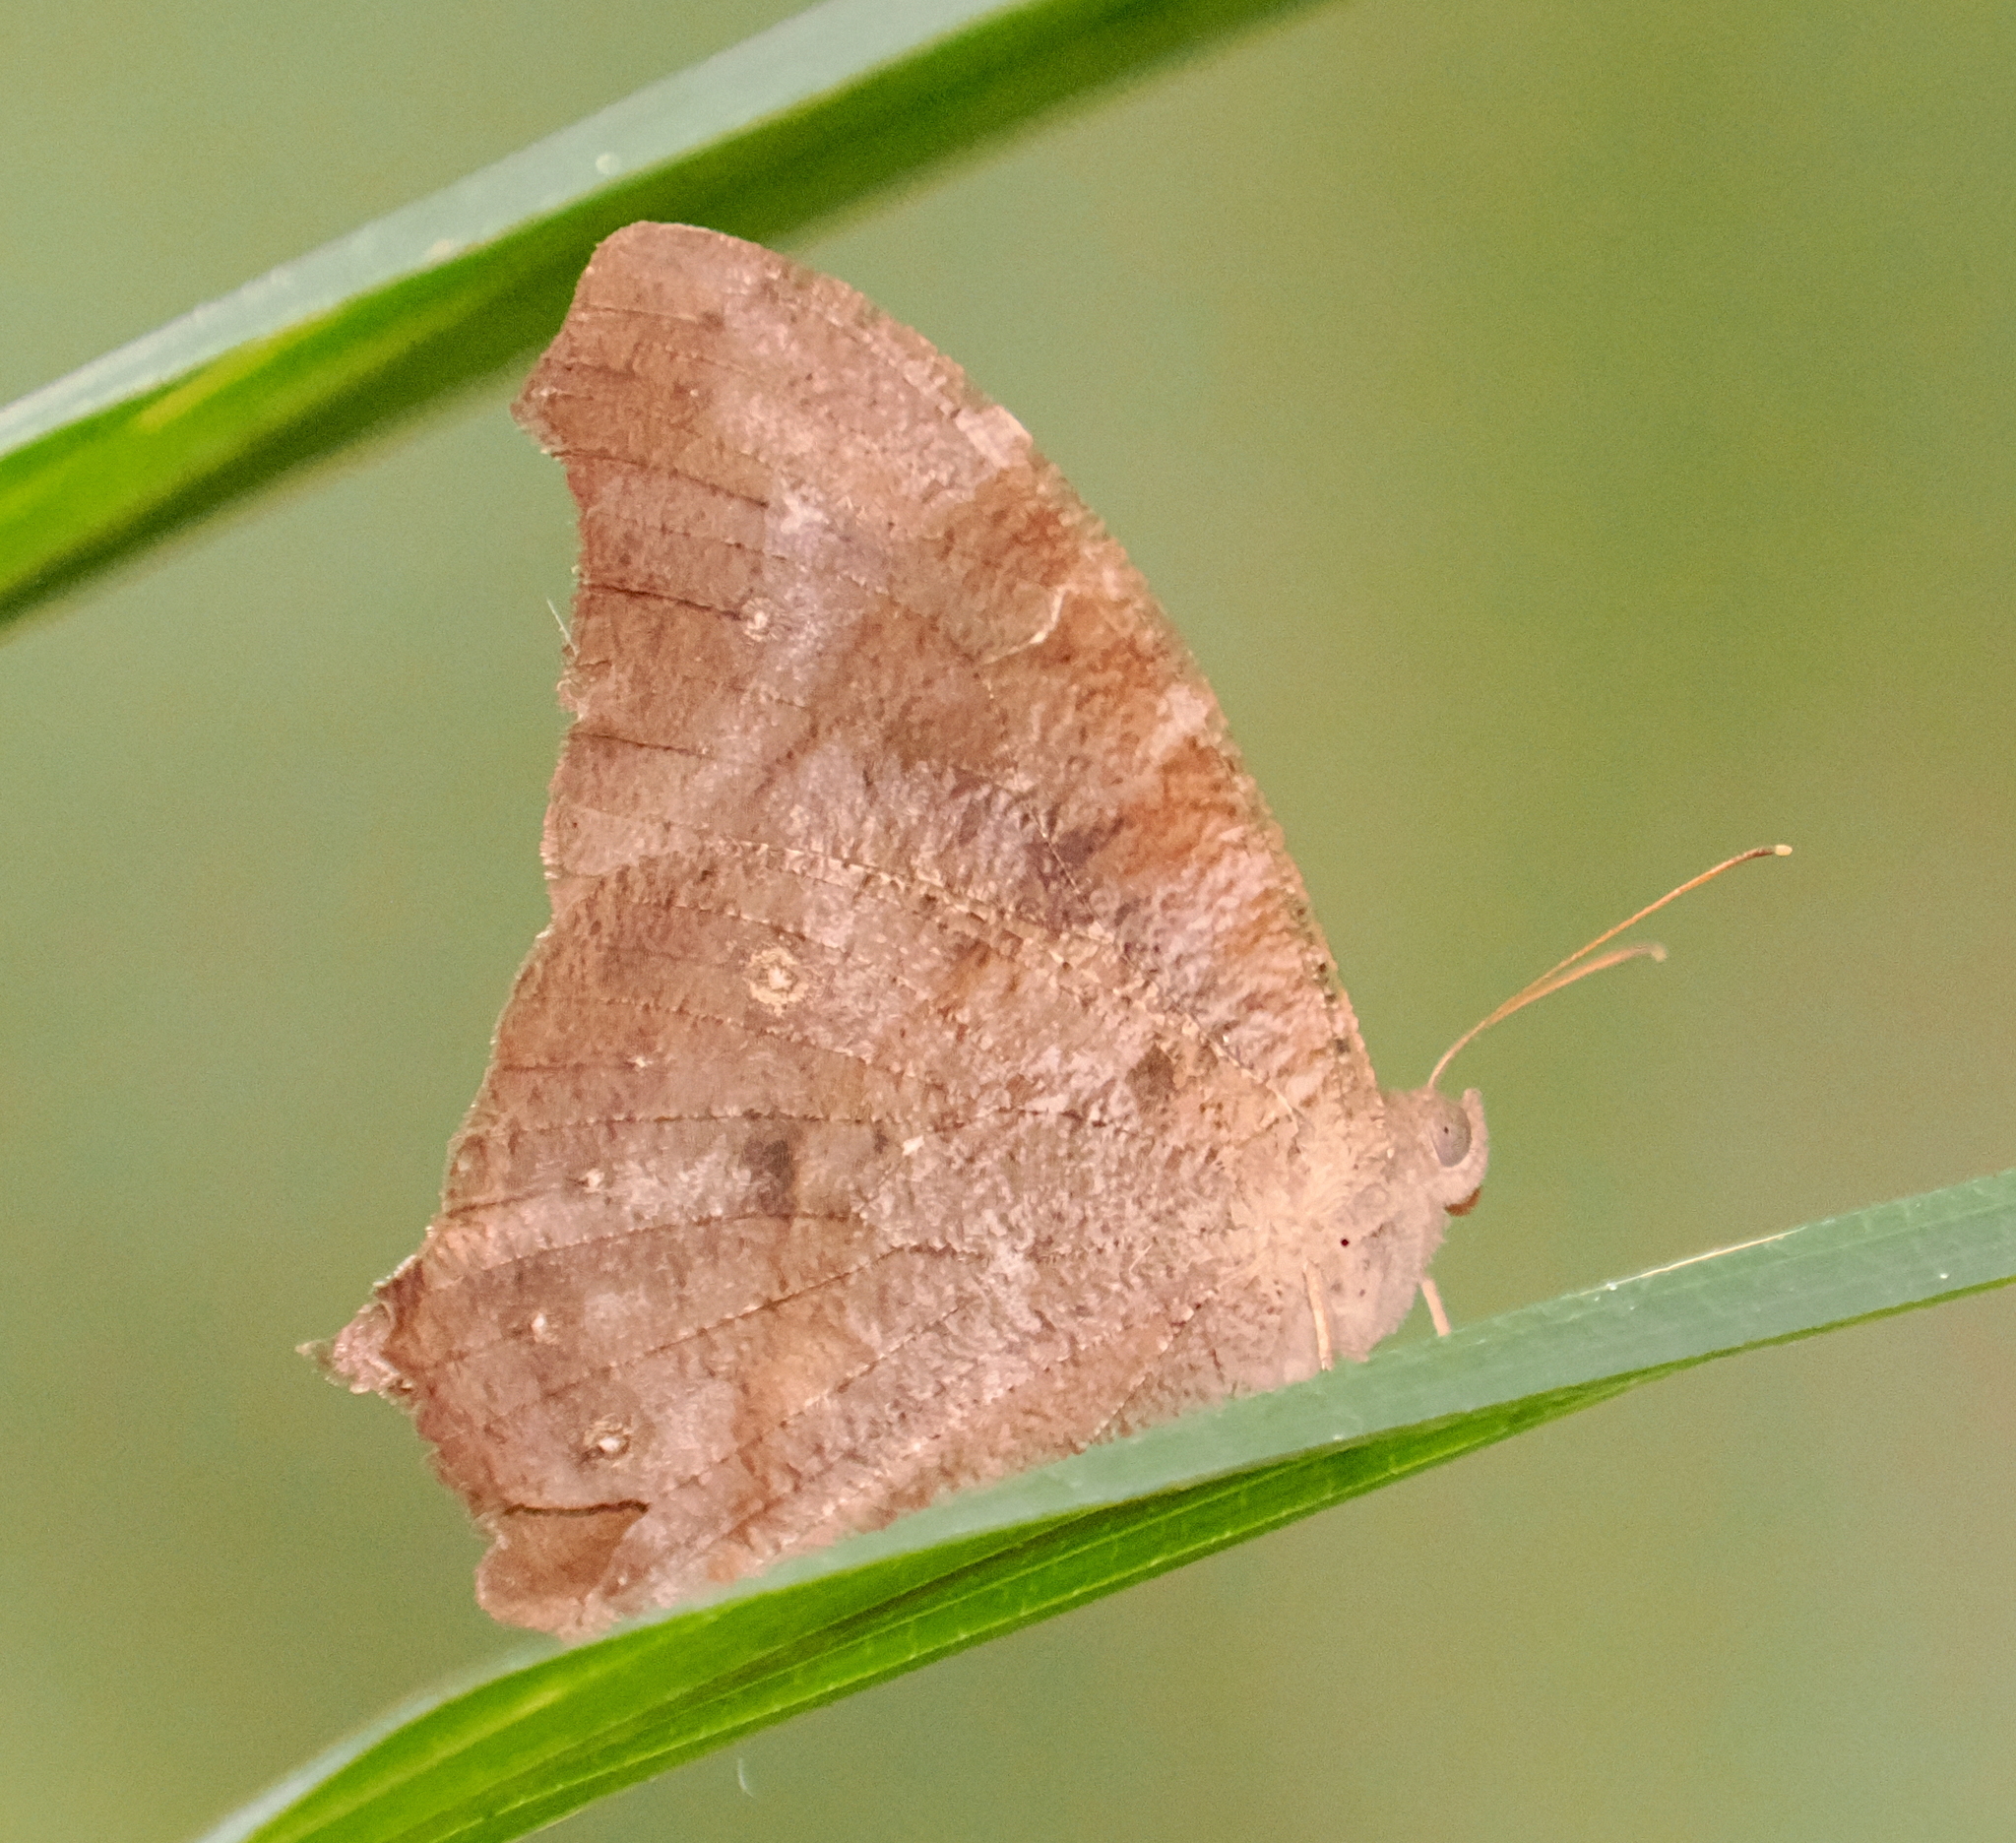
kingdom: Animalia
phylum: Arthropoda
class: Insecta
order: Lepidoptera
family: Nymphalidae
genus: Melanitis
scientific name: Melanitis leda
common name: Twilight brown
